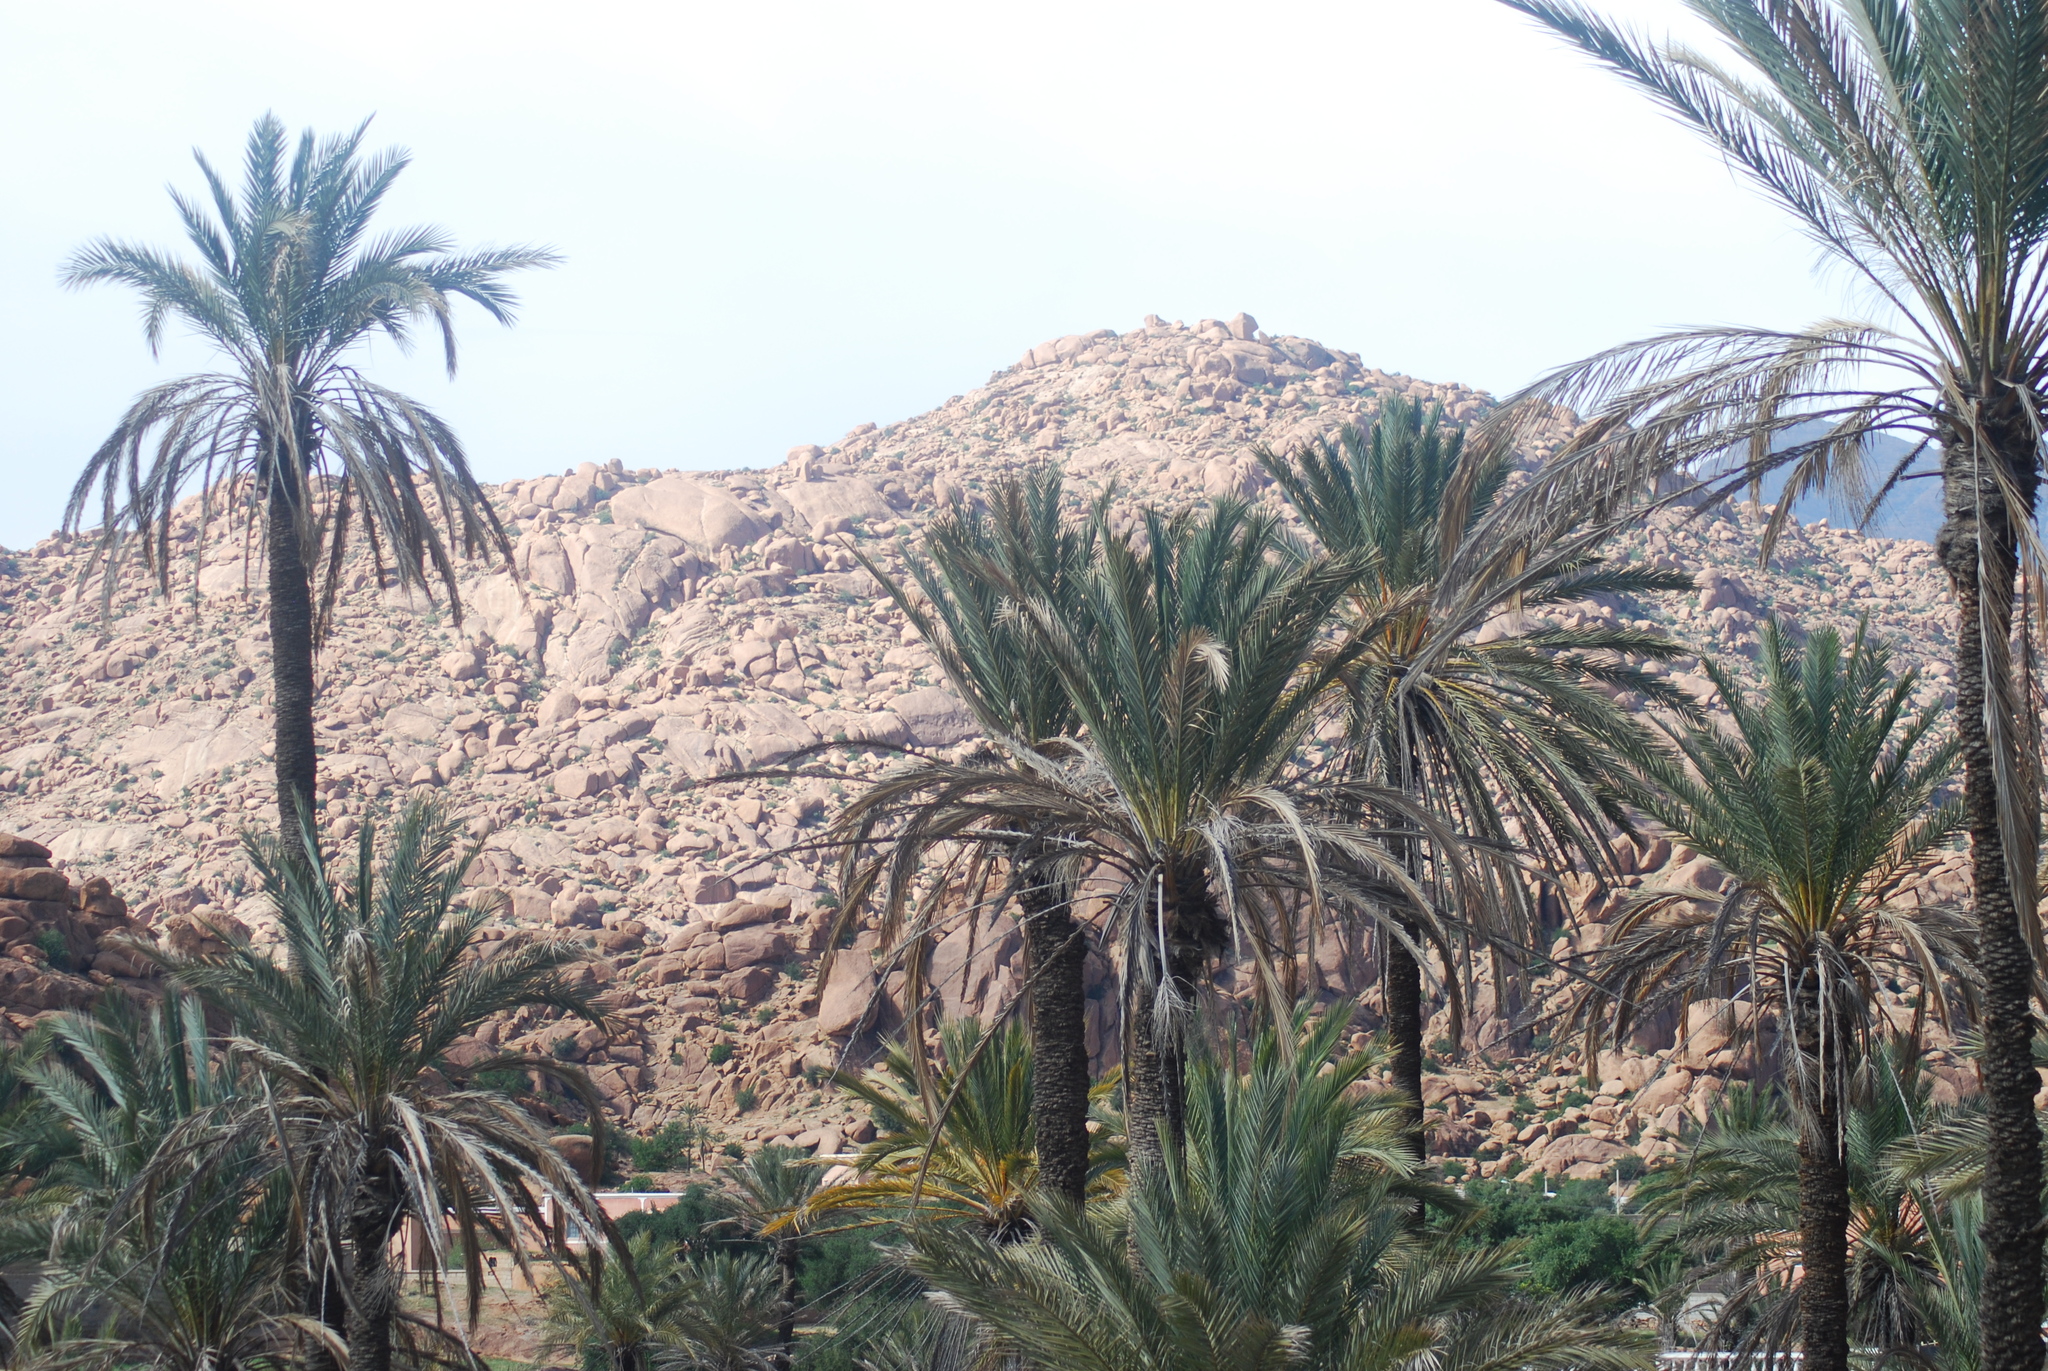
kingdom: Plantae
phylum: Tracheophyta
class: Liliopsida
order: Arecales
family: Arecaceae
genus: Phoenix
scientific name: Phoenix dactylifera
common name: Date palm
